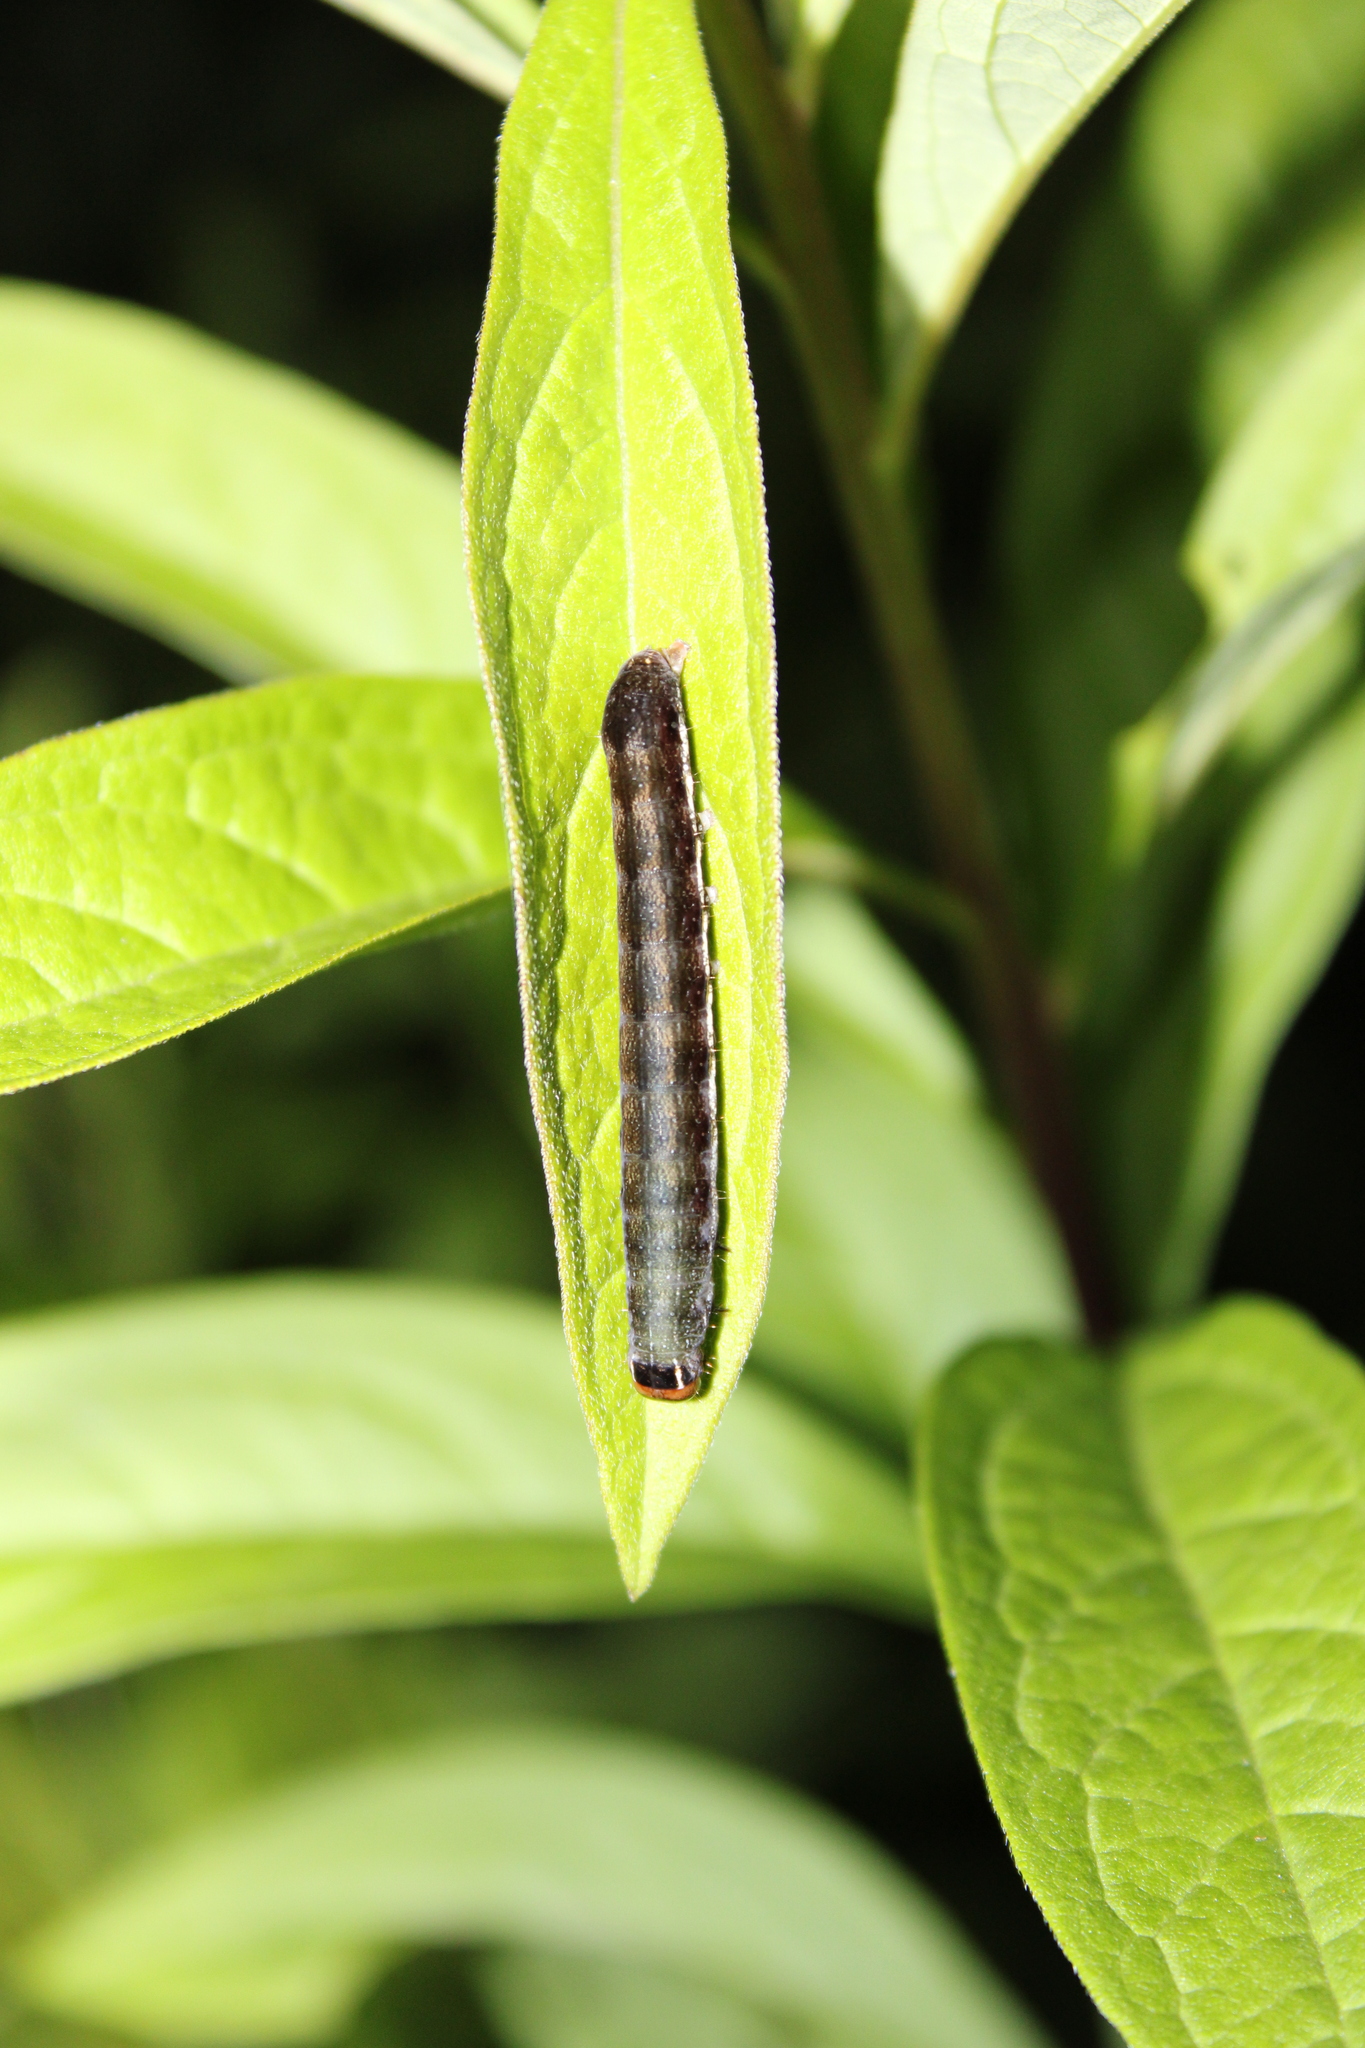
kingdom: Animalia
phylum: Arthropoda
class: Insecta
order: Lepidoptera
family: Noctuidae
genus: Eupsilia
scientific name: Eupsilia devia
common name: Lost sallow
